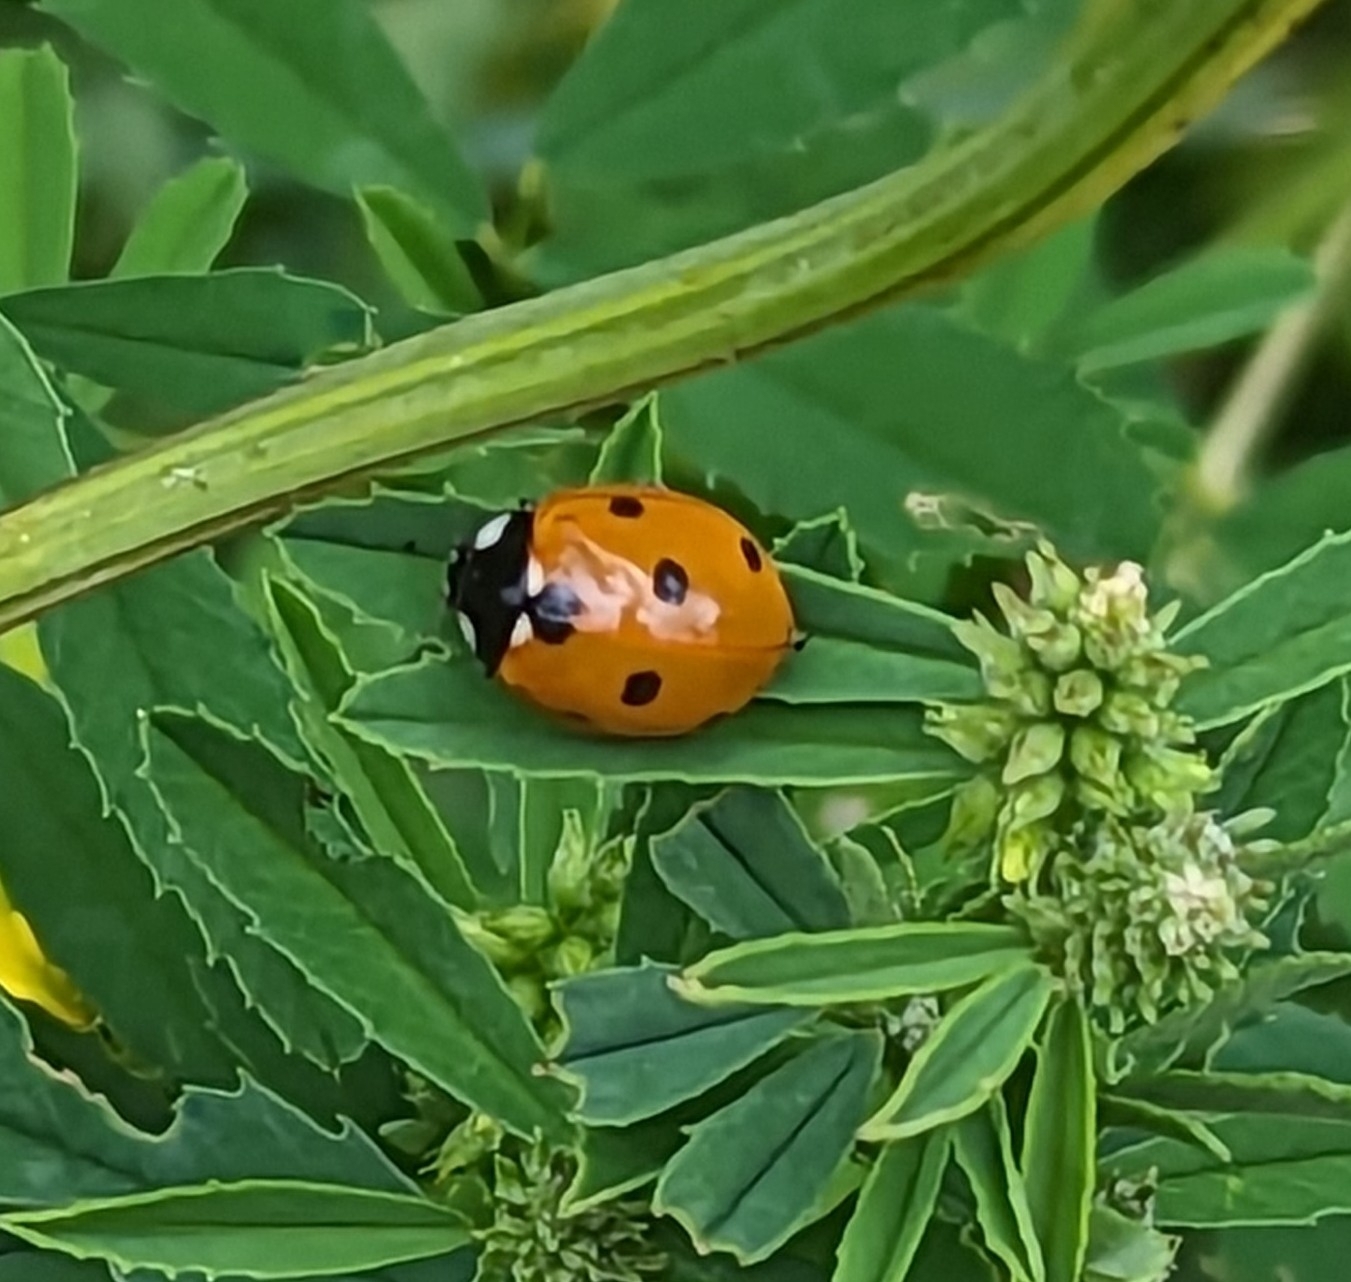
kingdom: Animalia
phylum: Arthropoda
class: Insecta
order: Coleoptera
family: Coccinellidae
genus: Coccinella
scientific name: Coccinella septempunctata
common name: Sevenspotted lady beetle
